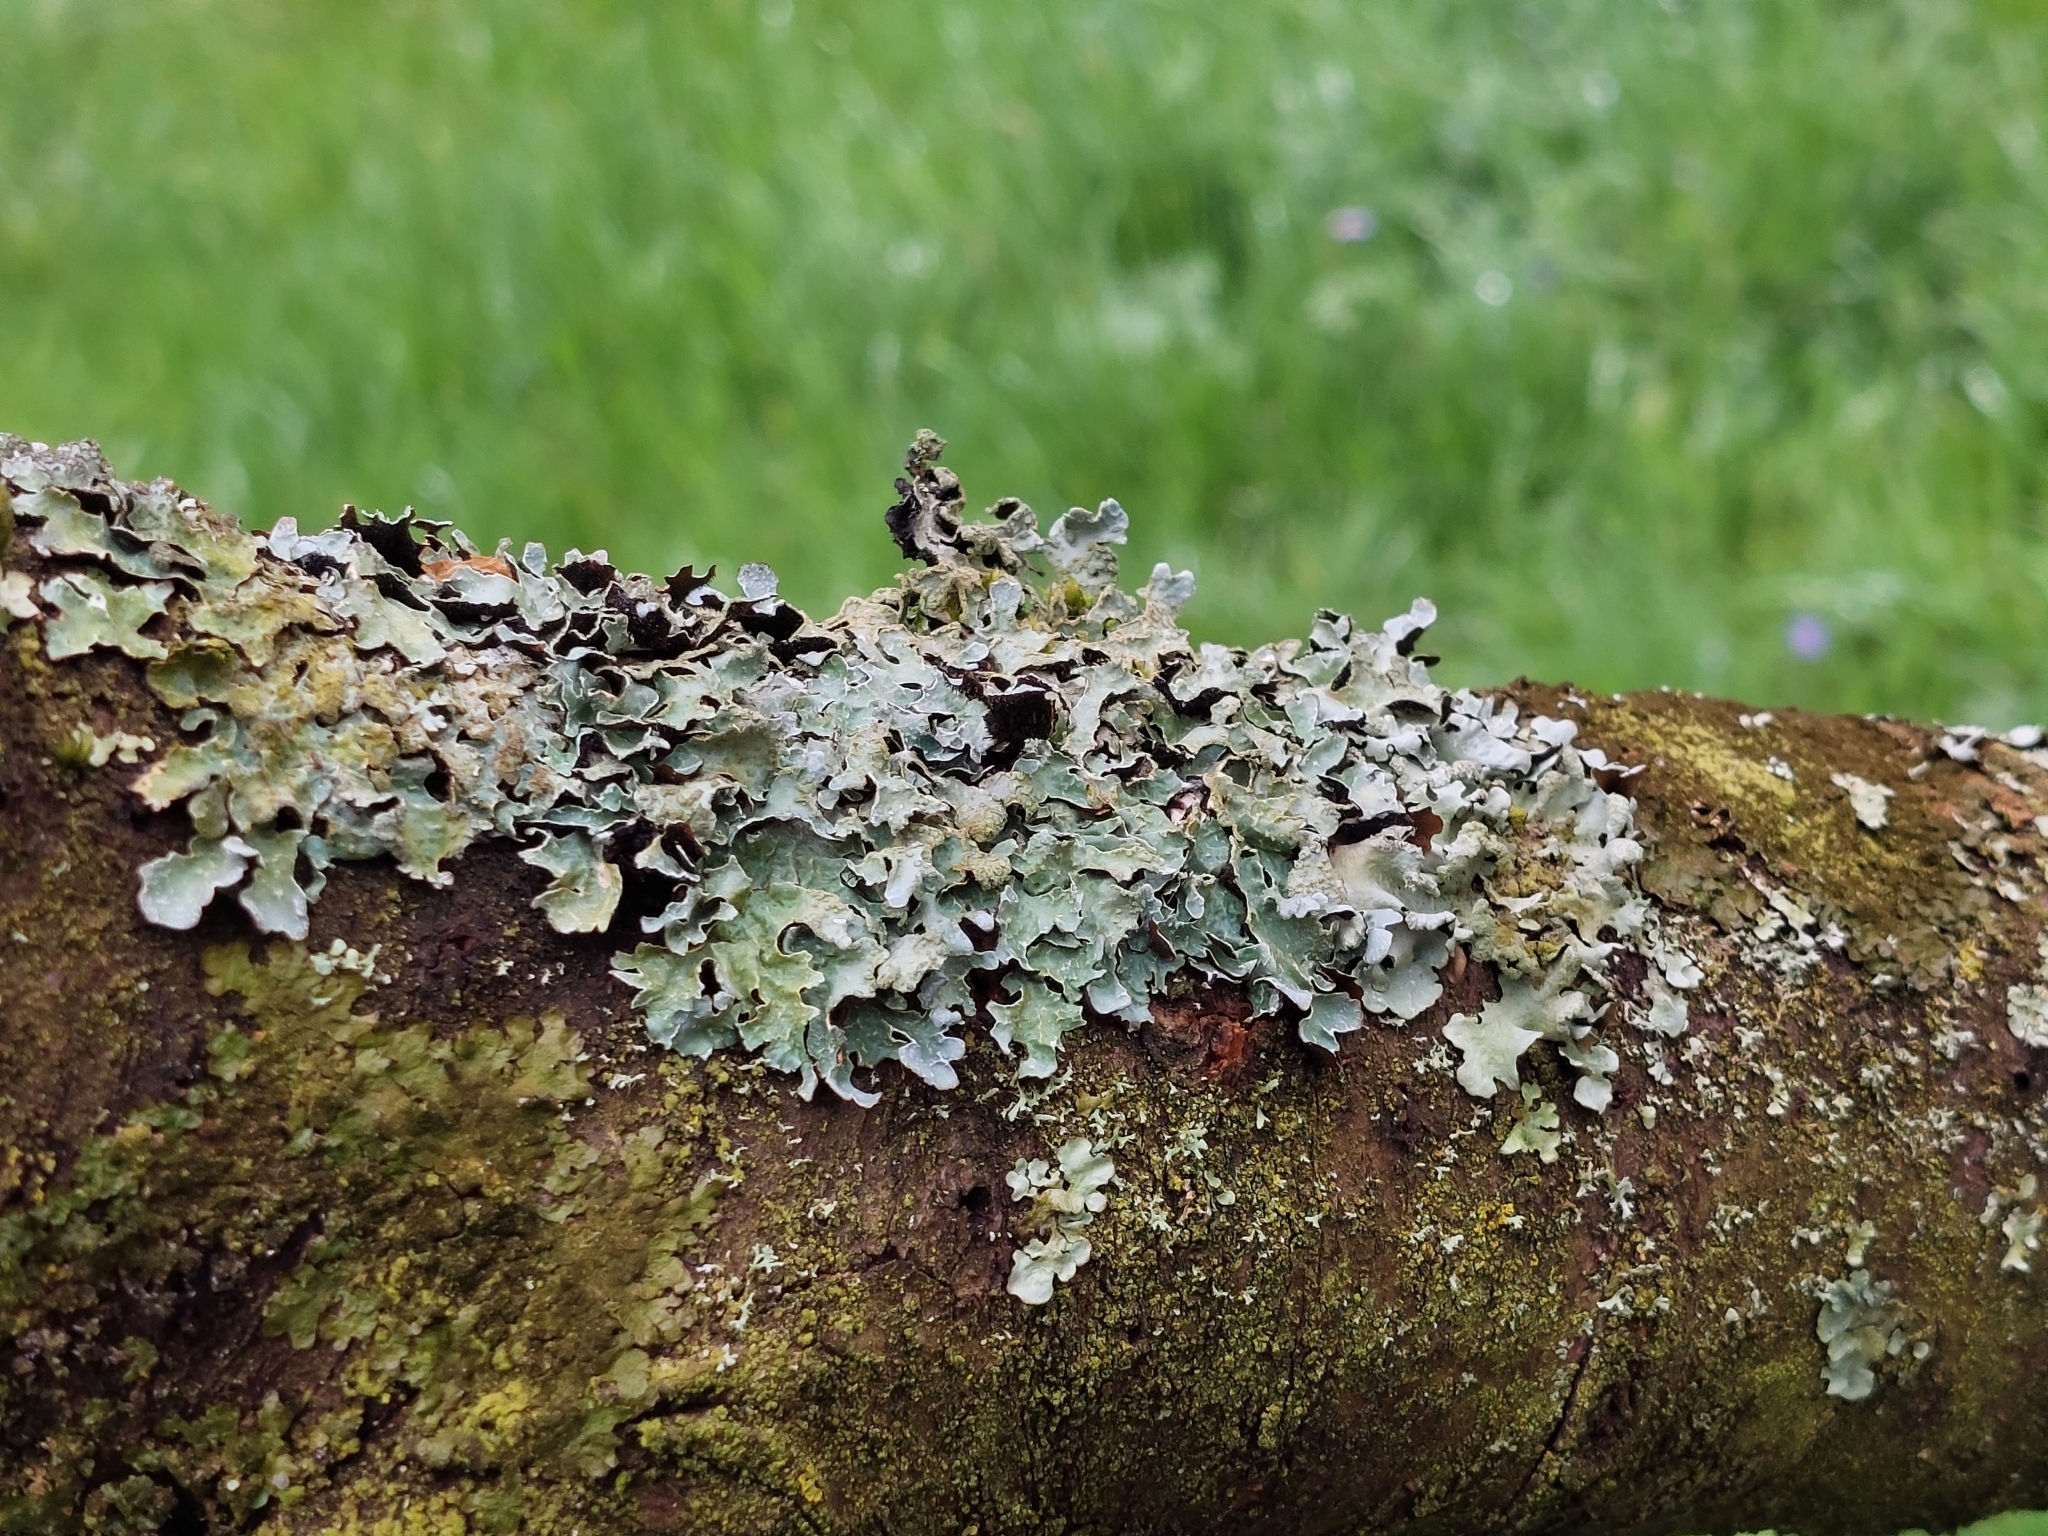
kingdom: Fungi
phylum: Ascomycota
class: Lecanoromycetes
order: Lecanorales
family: Parmeliaceae
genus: Parmelia
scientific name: Parmelia sulcata
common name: Netted shield lichen
